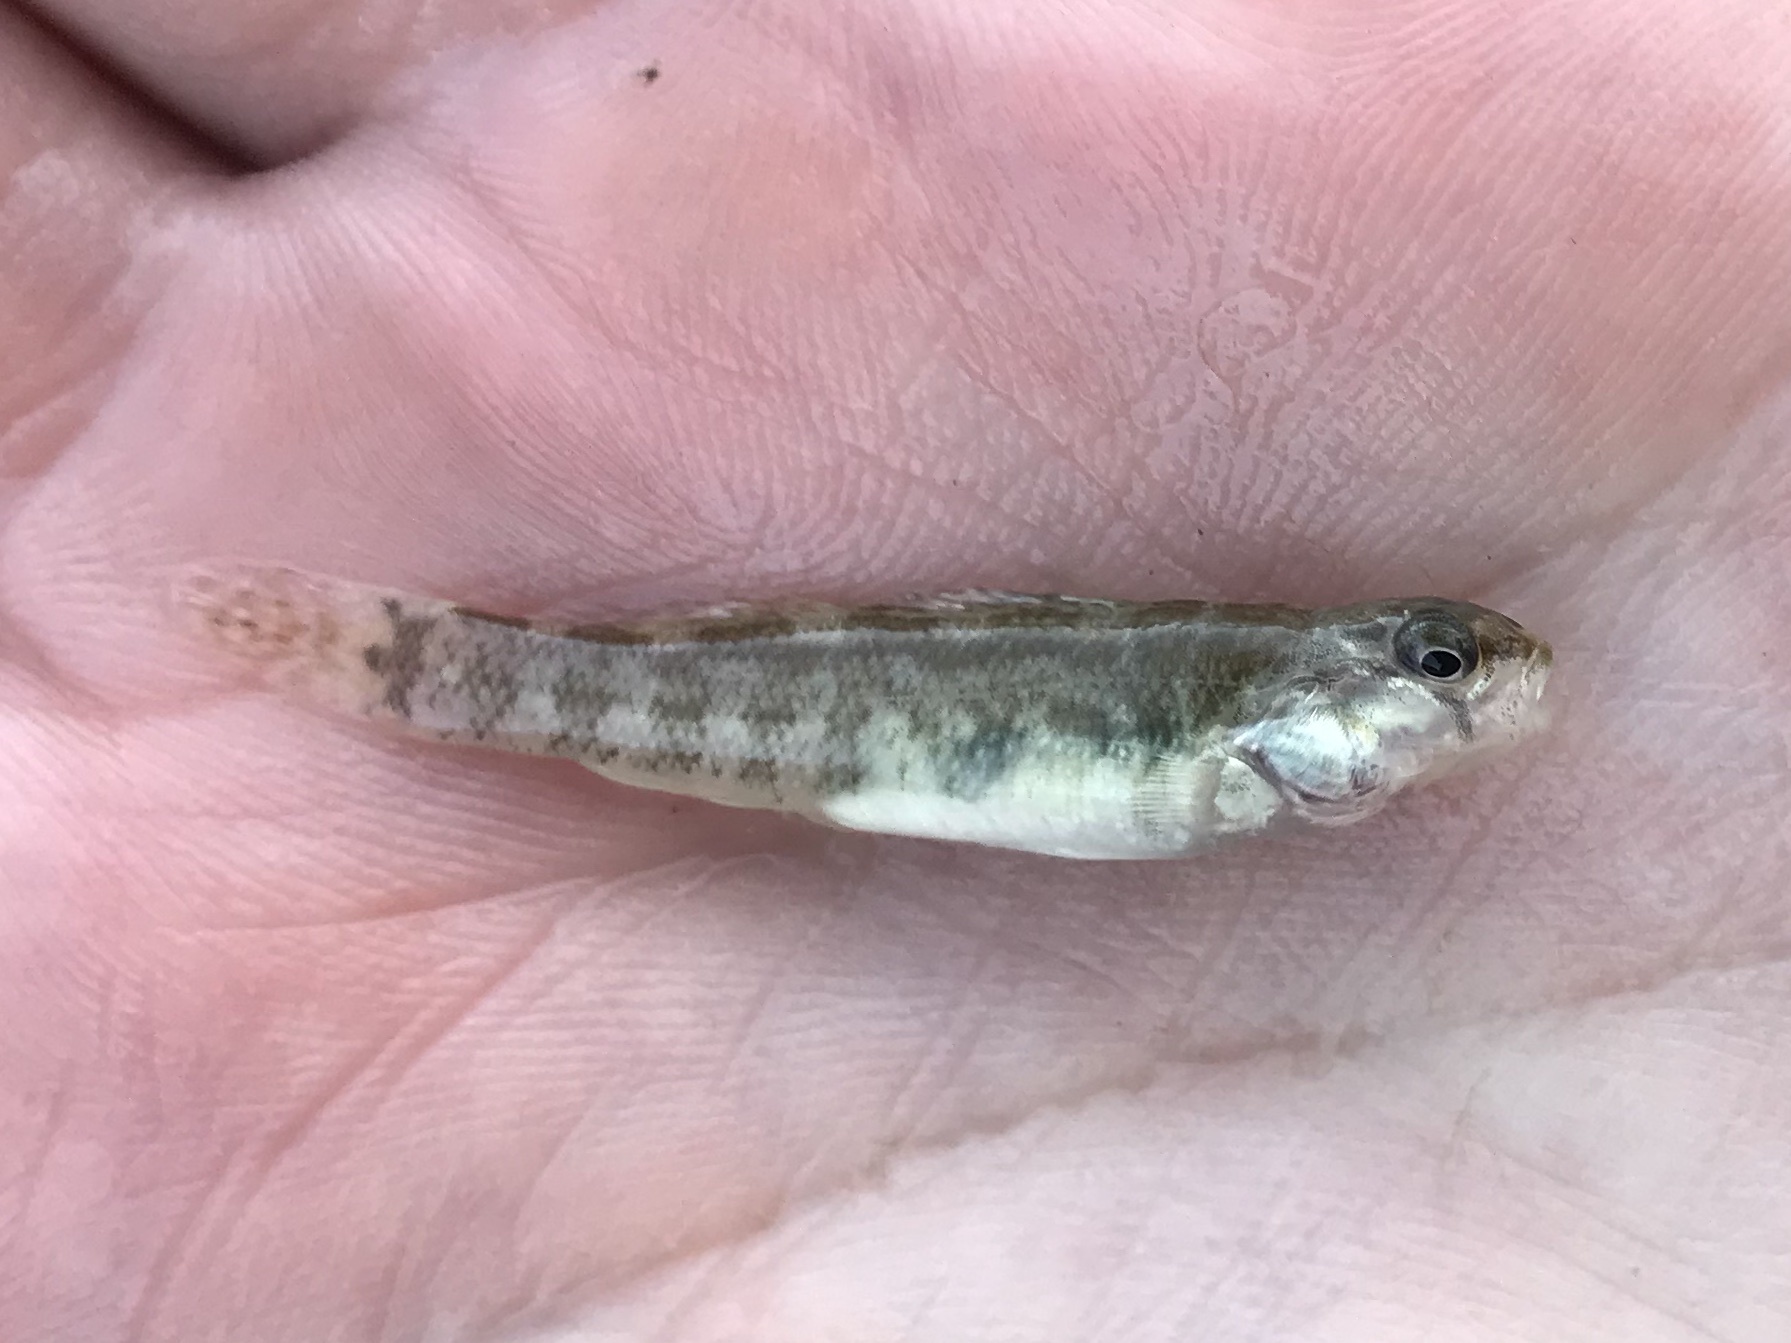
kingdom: Animalia
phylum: Chordata
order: Perciformes
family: Percidae
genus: Etheostoma
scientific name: Etheostoma spectabile
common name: Orangethroat darter
